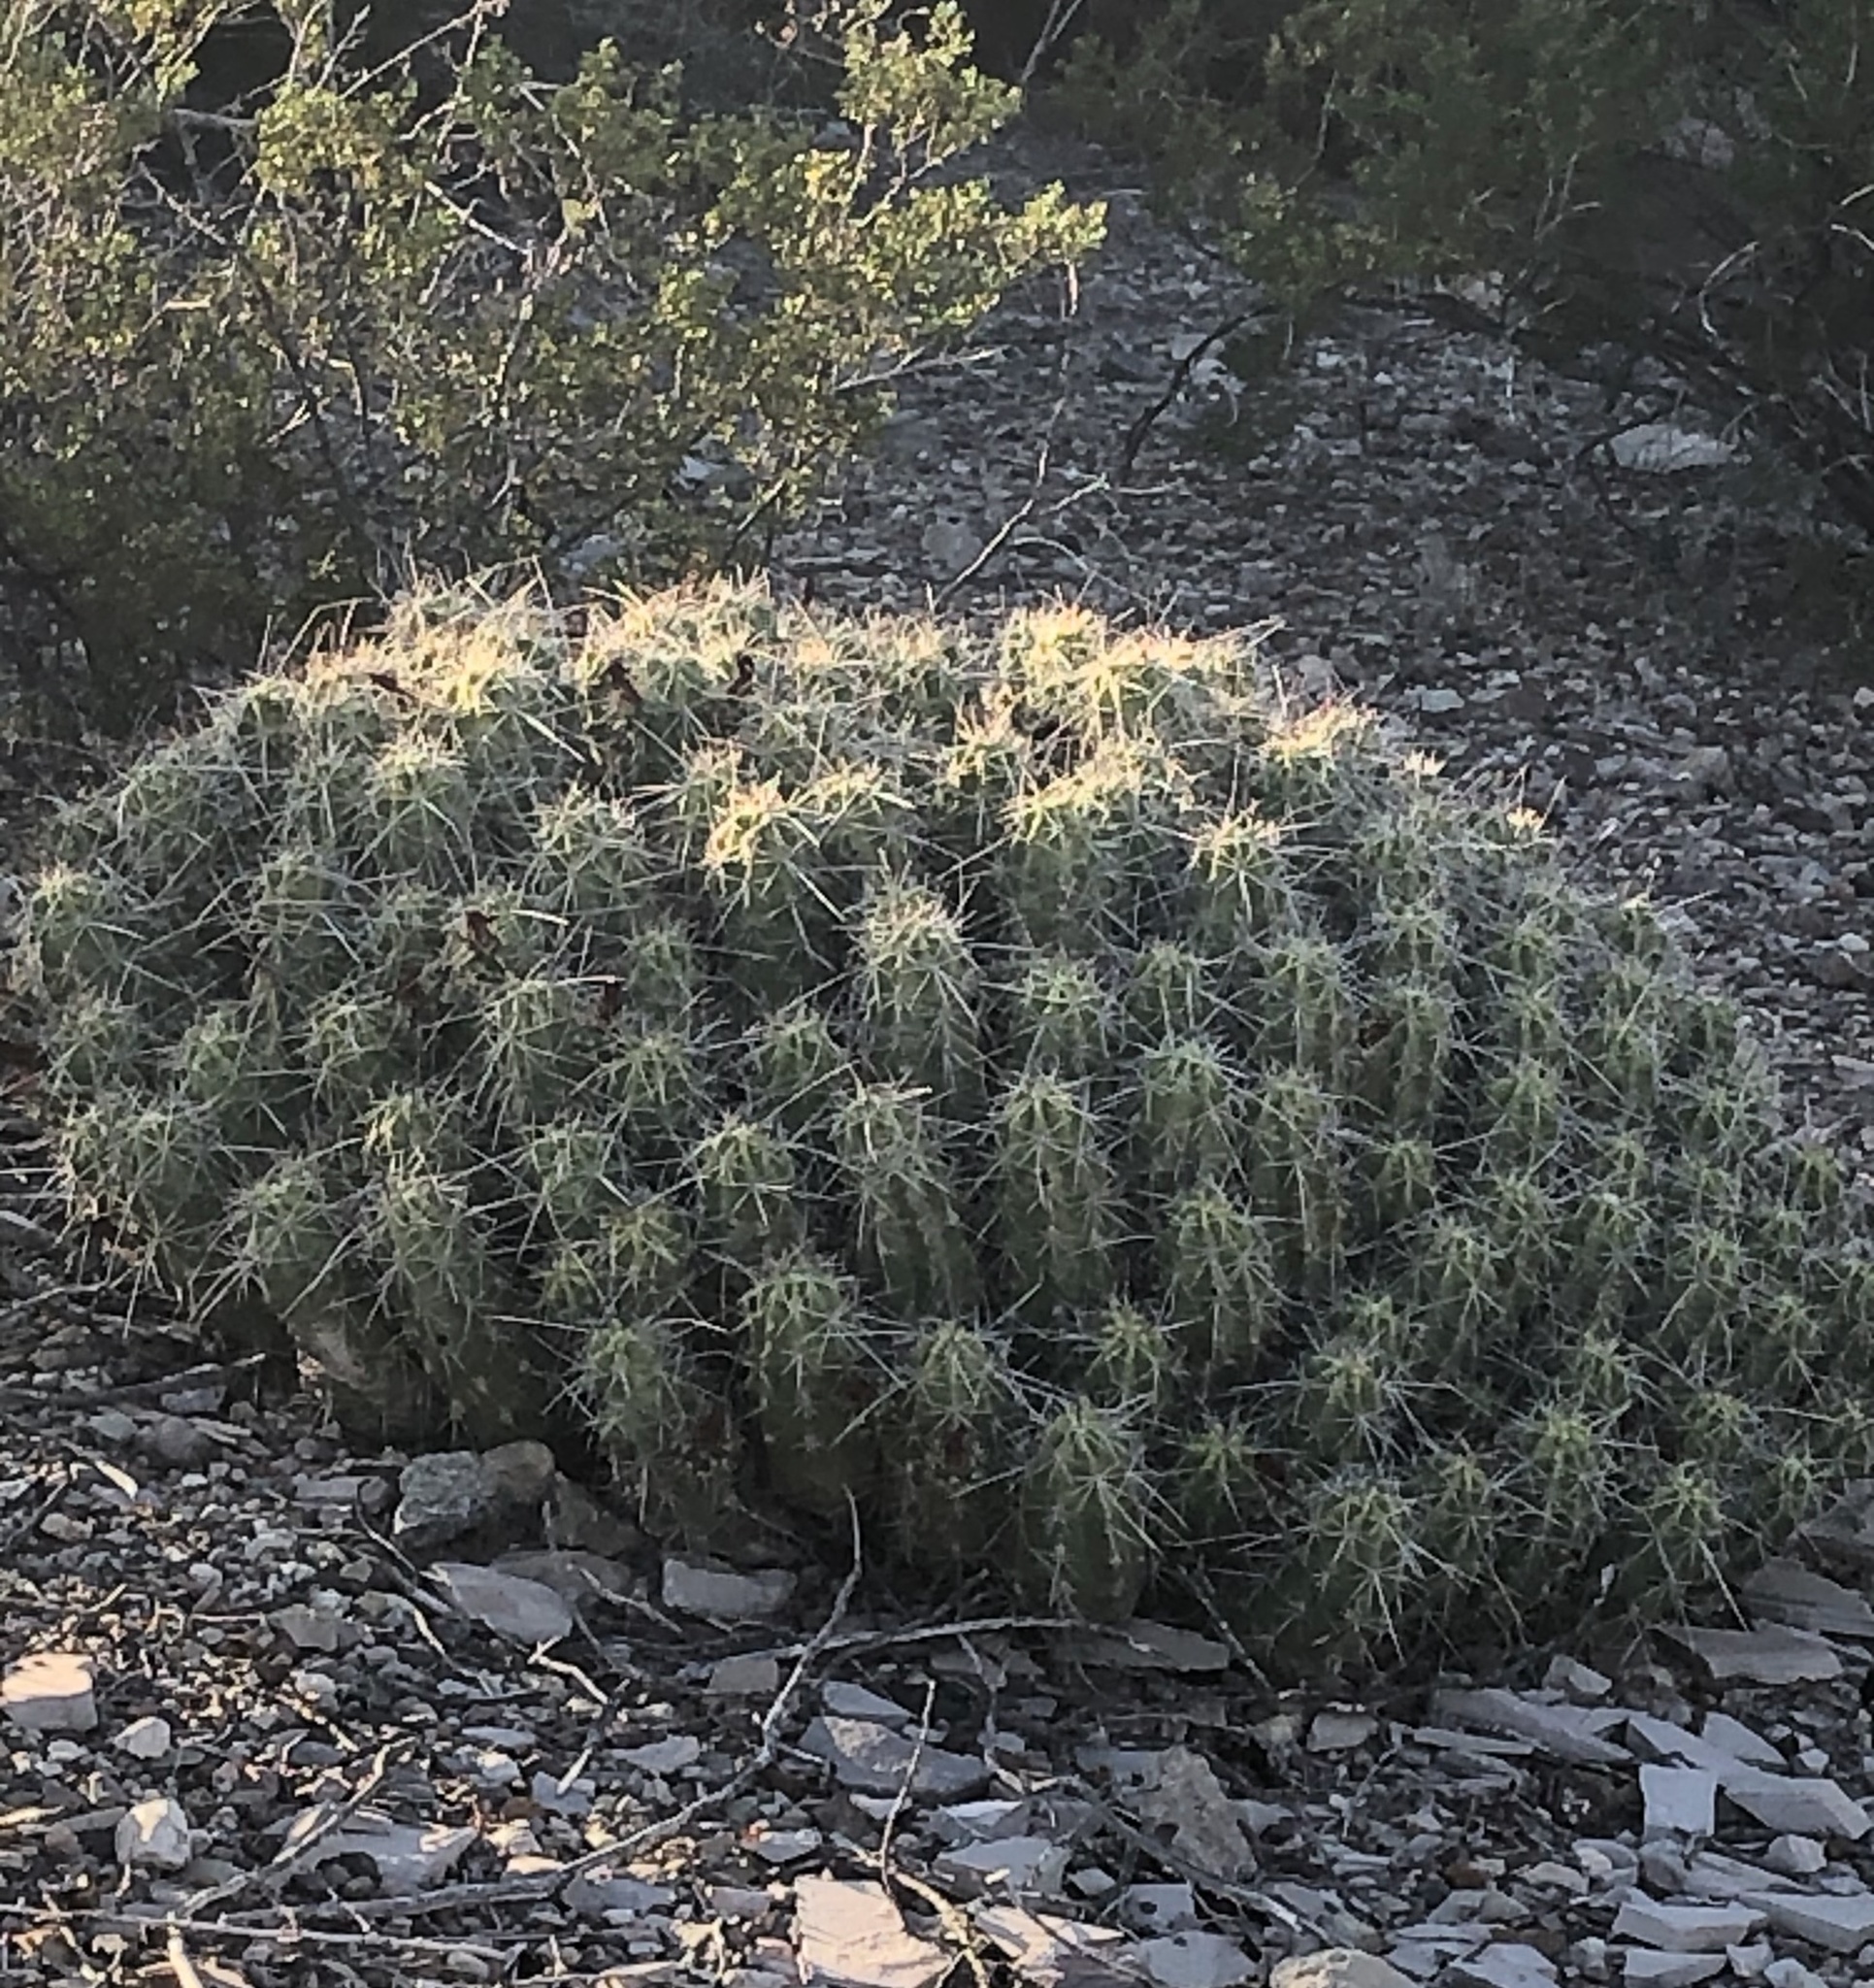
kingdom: Plantae
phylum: Tracheophyta
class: Magnoliopsida
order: Caryophyllales
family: Cactaceae
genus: Echinocereus
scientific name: Echinocereus enneacanthus
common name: Pitaya
